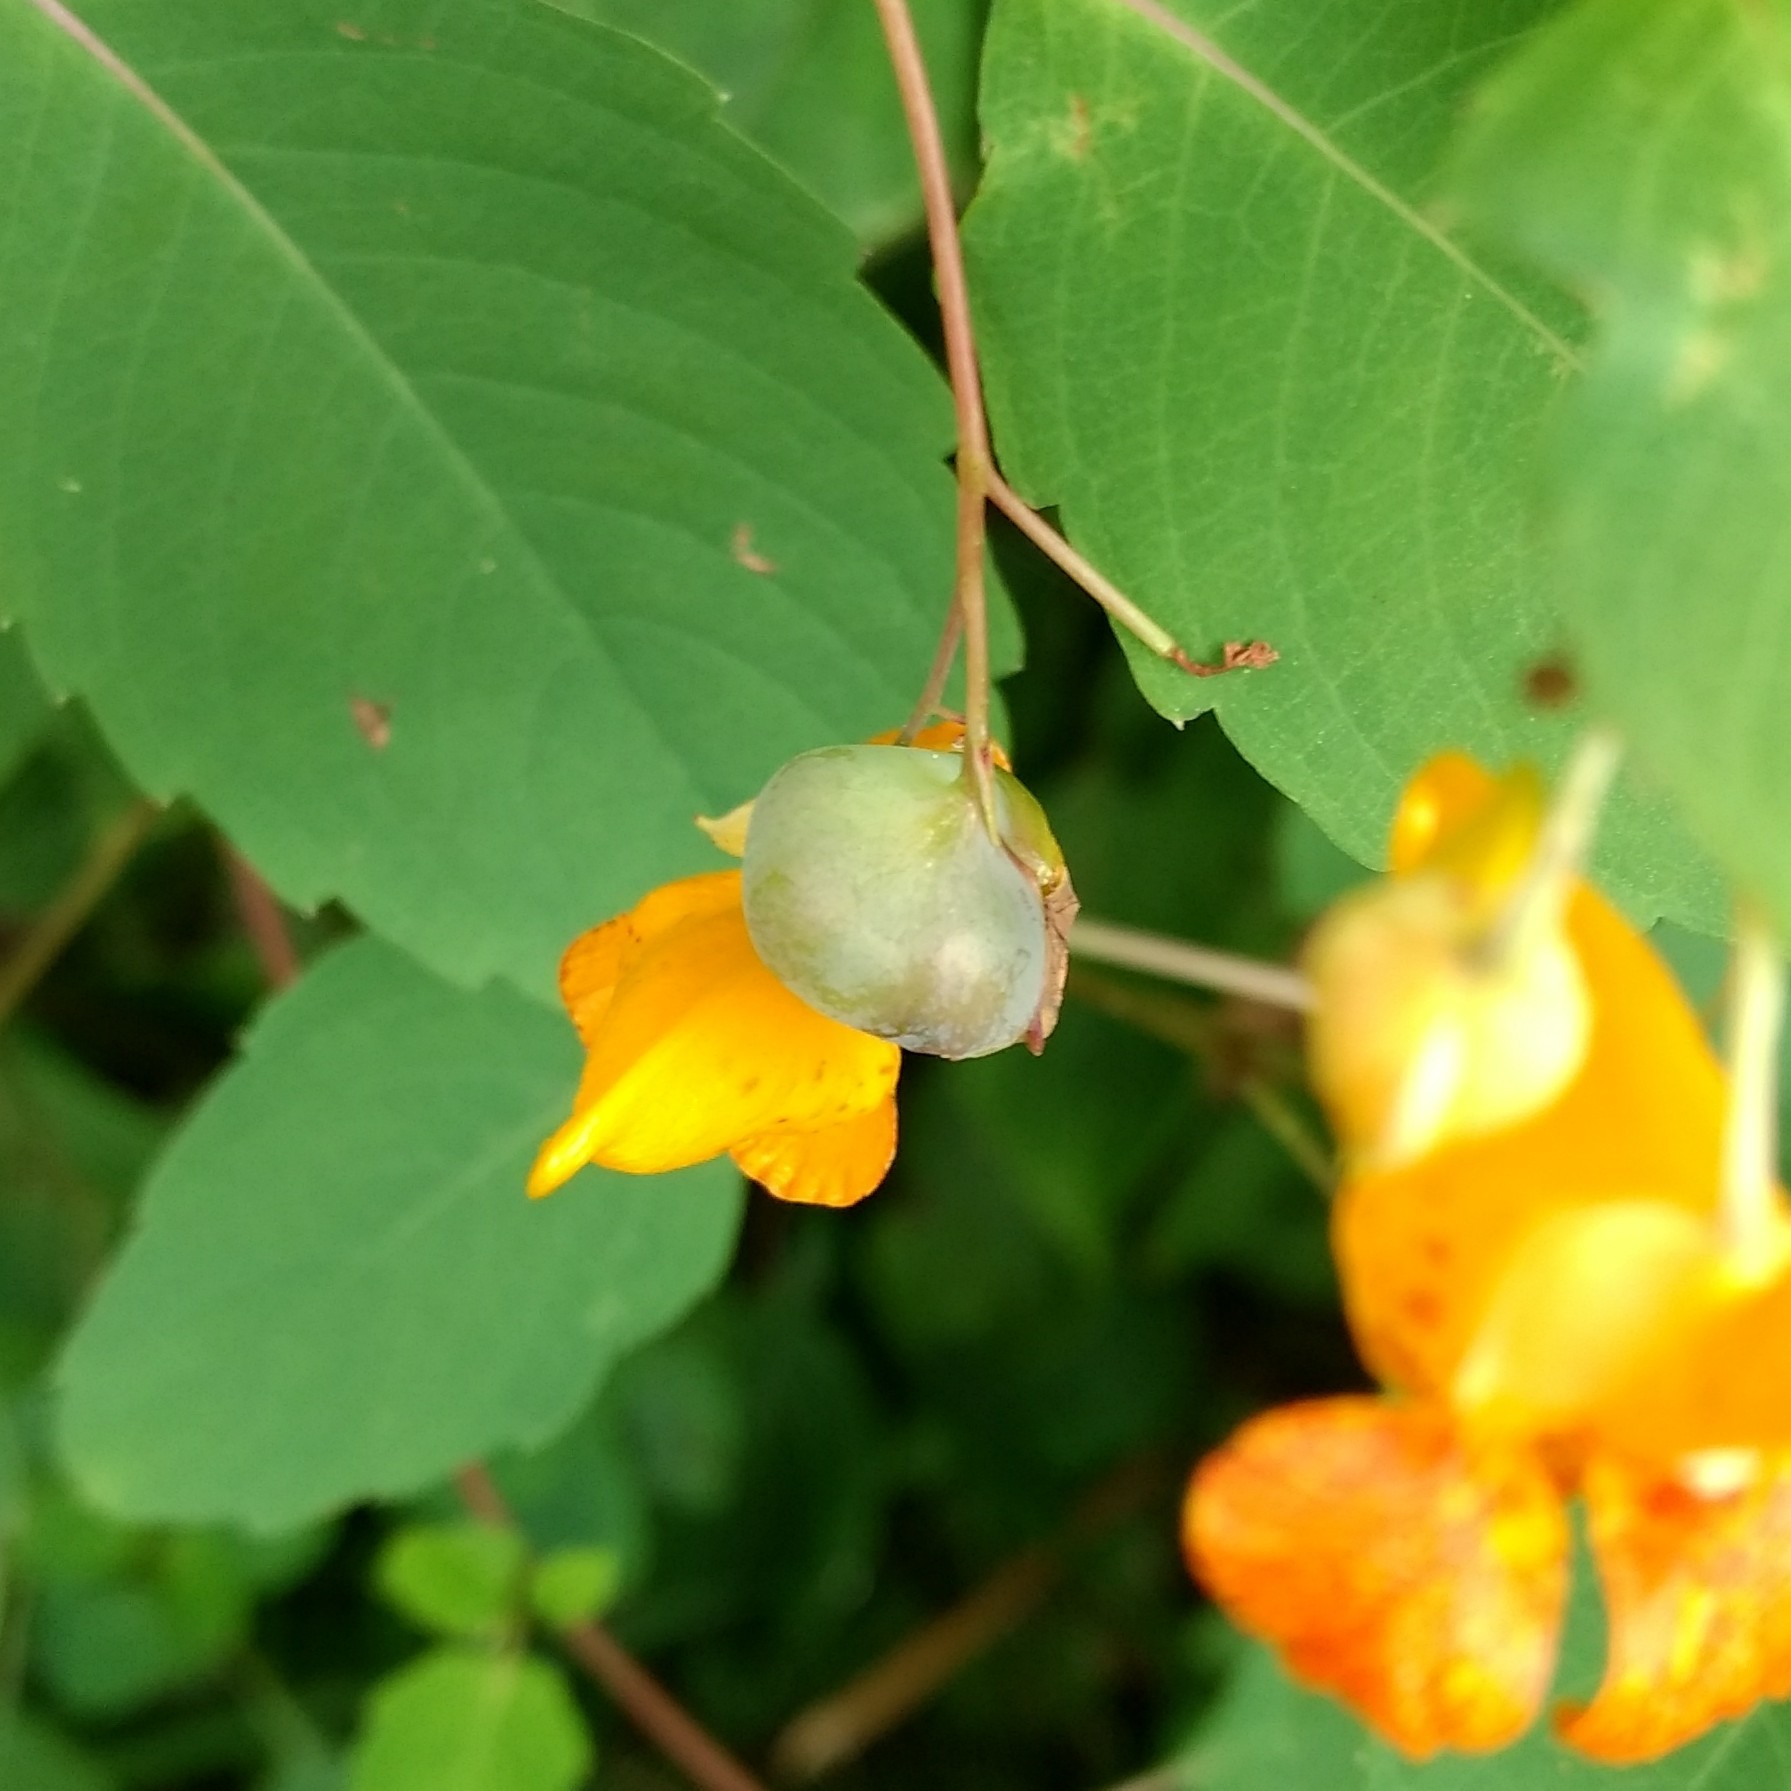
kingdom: Animalia
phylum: Arthropoda
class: Insecta
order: Diptera
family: Cecidomyiidae
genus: Schizomyia
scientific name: Schizomyia impatientis
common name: Jewelweed gall midge
